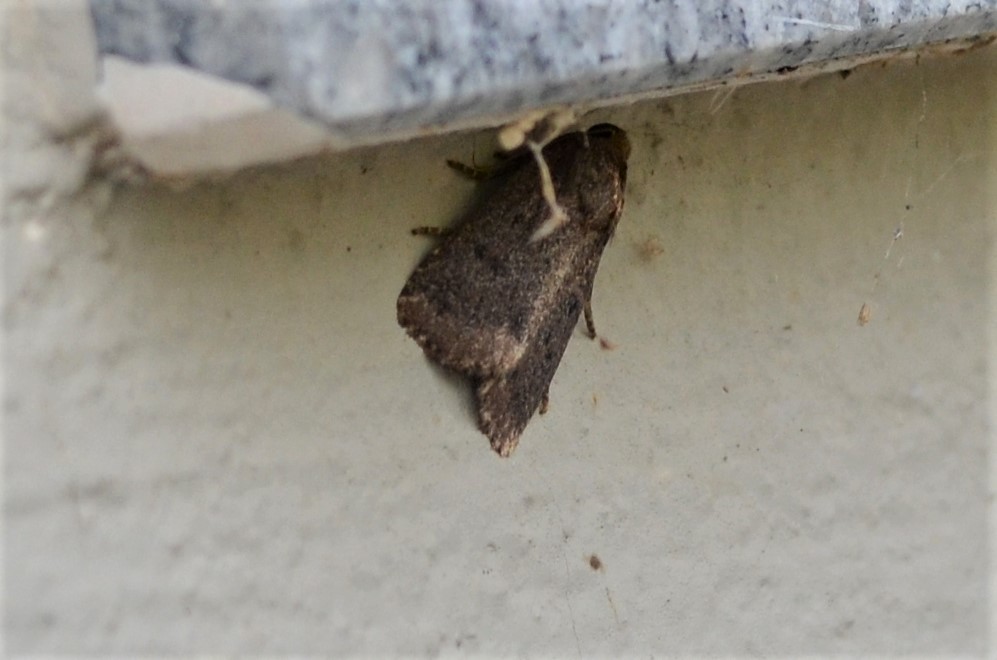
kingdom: Animalia
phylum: Arthropoda
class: Insecta
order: Lepidoptera
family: Noctuidae
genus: Amphipyra
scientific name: Amphipyra tragopoginis
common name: Mouse moth
